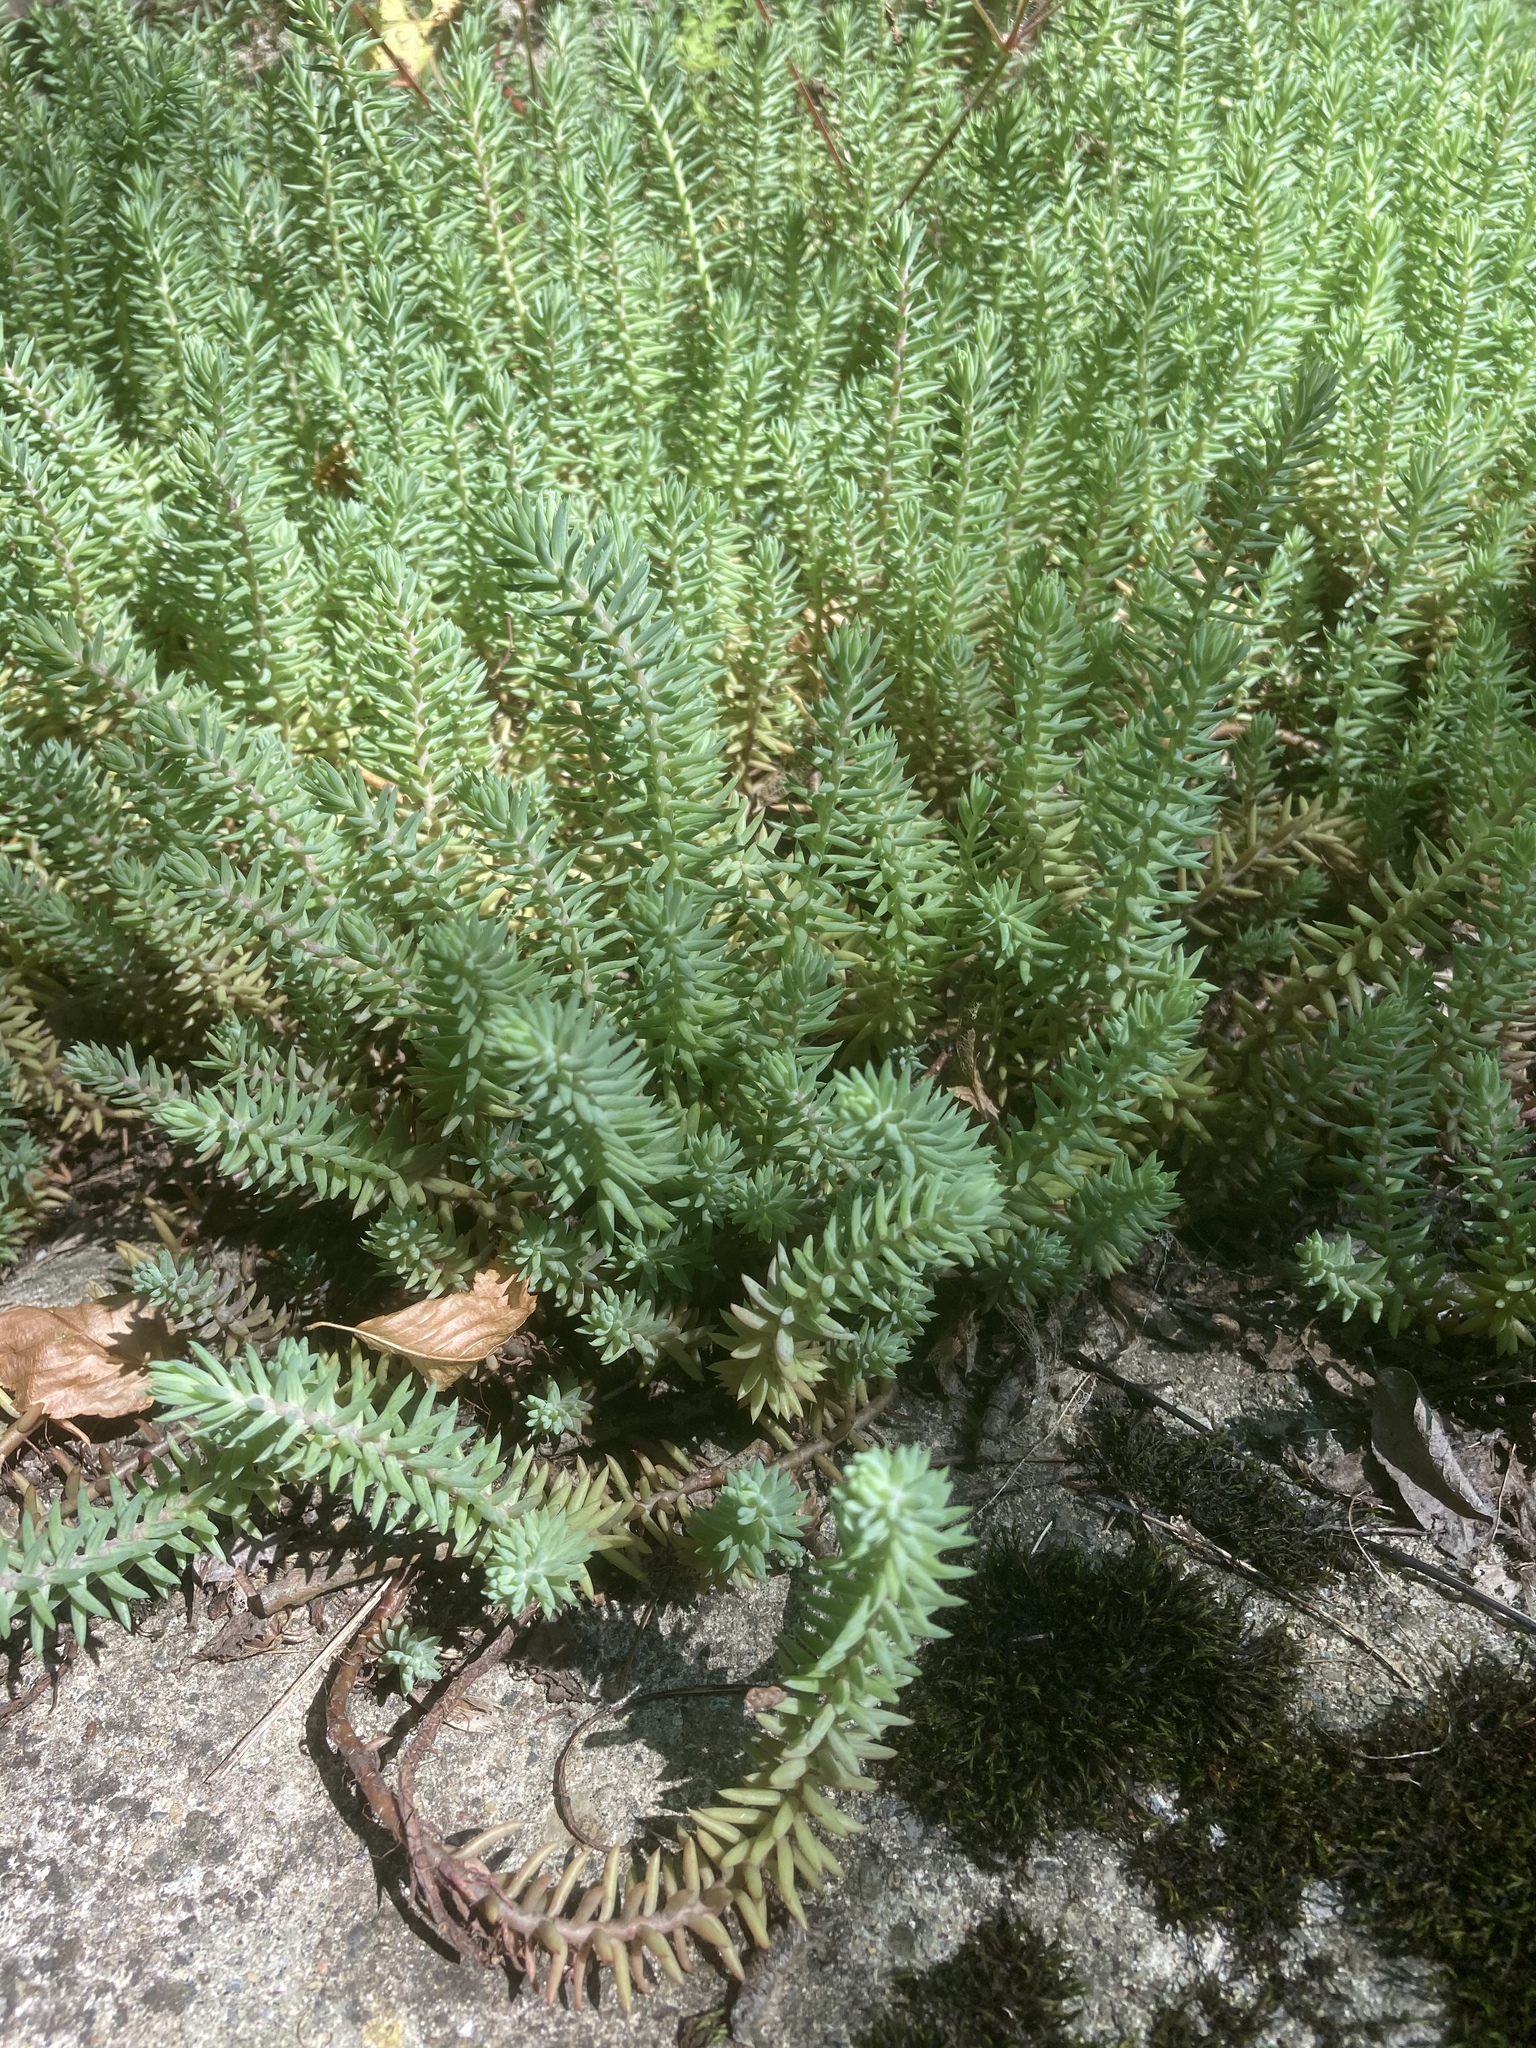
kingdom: Plantae
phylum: Tracheophyta
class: Magnoliopsida
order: Saxifragales
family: Crassulaceae
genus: Petrosedum
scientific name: Petrosedum rupestre
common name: Jenny's stonecrop
